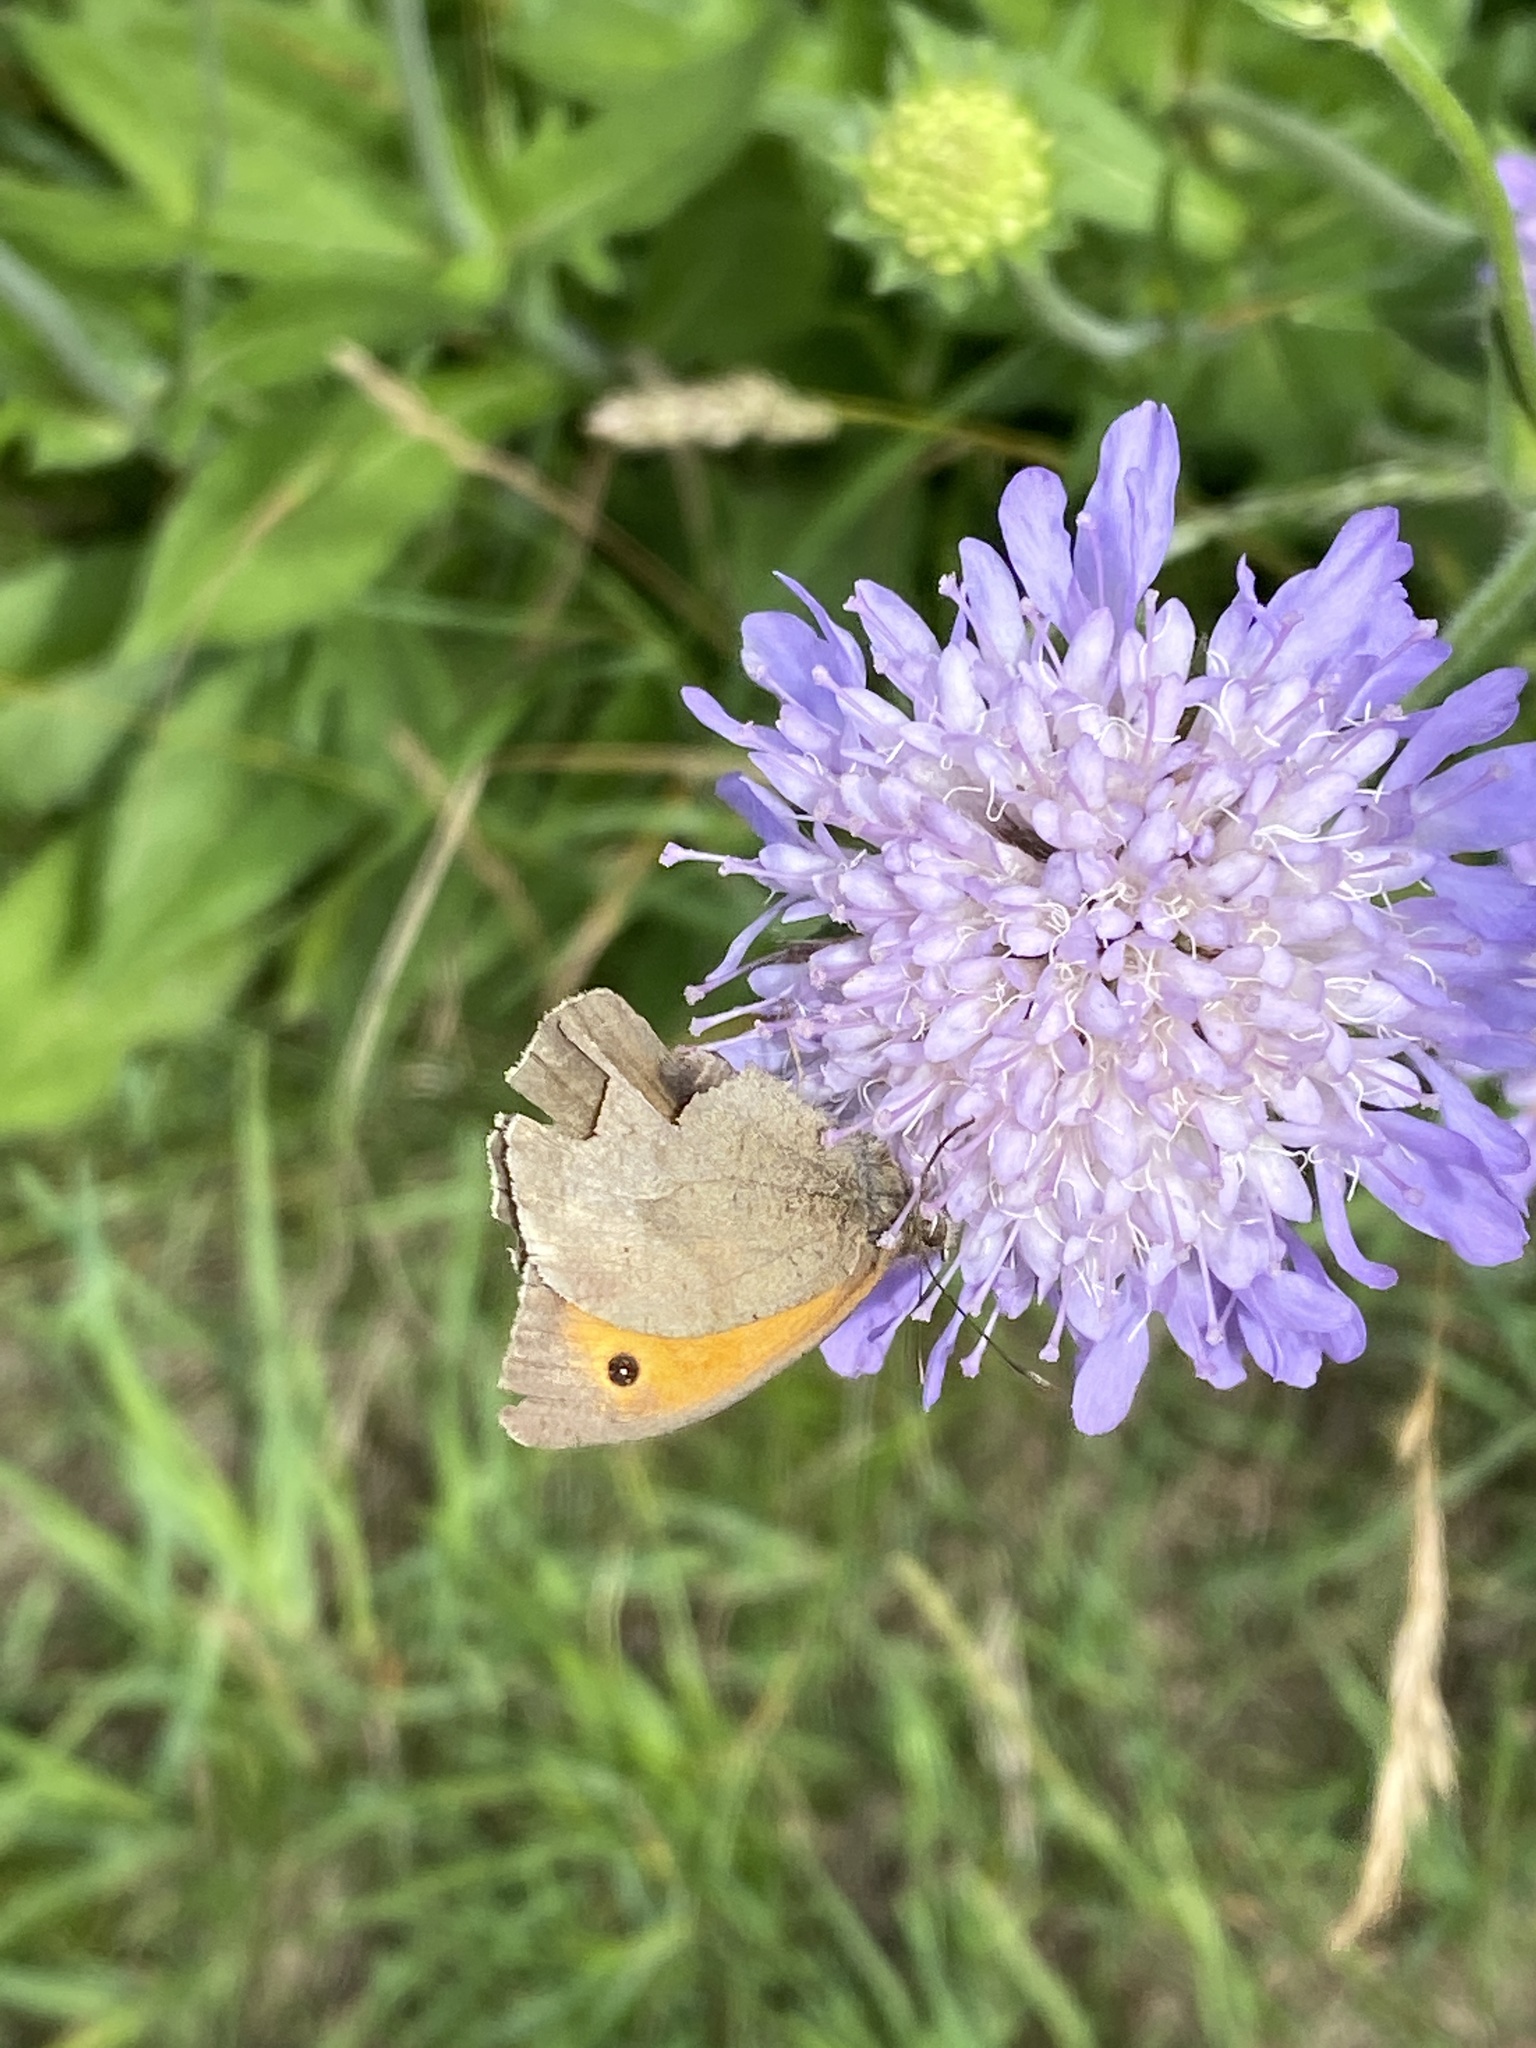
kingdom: Animalia
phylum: Arthropoda
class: Insecta
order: Lepidoptera
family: Nymphalidae
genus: Maniola
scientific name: Maniola jurtina
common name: Meadow brown
